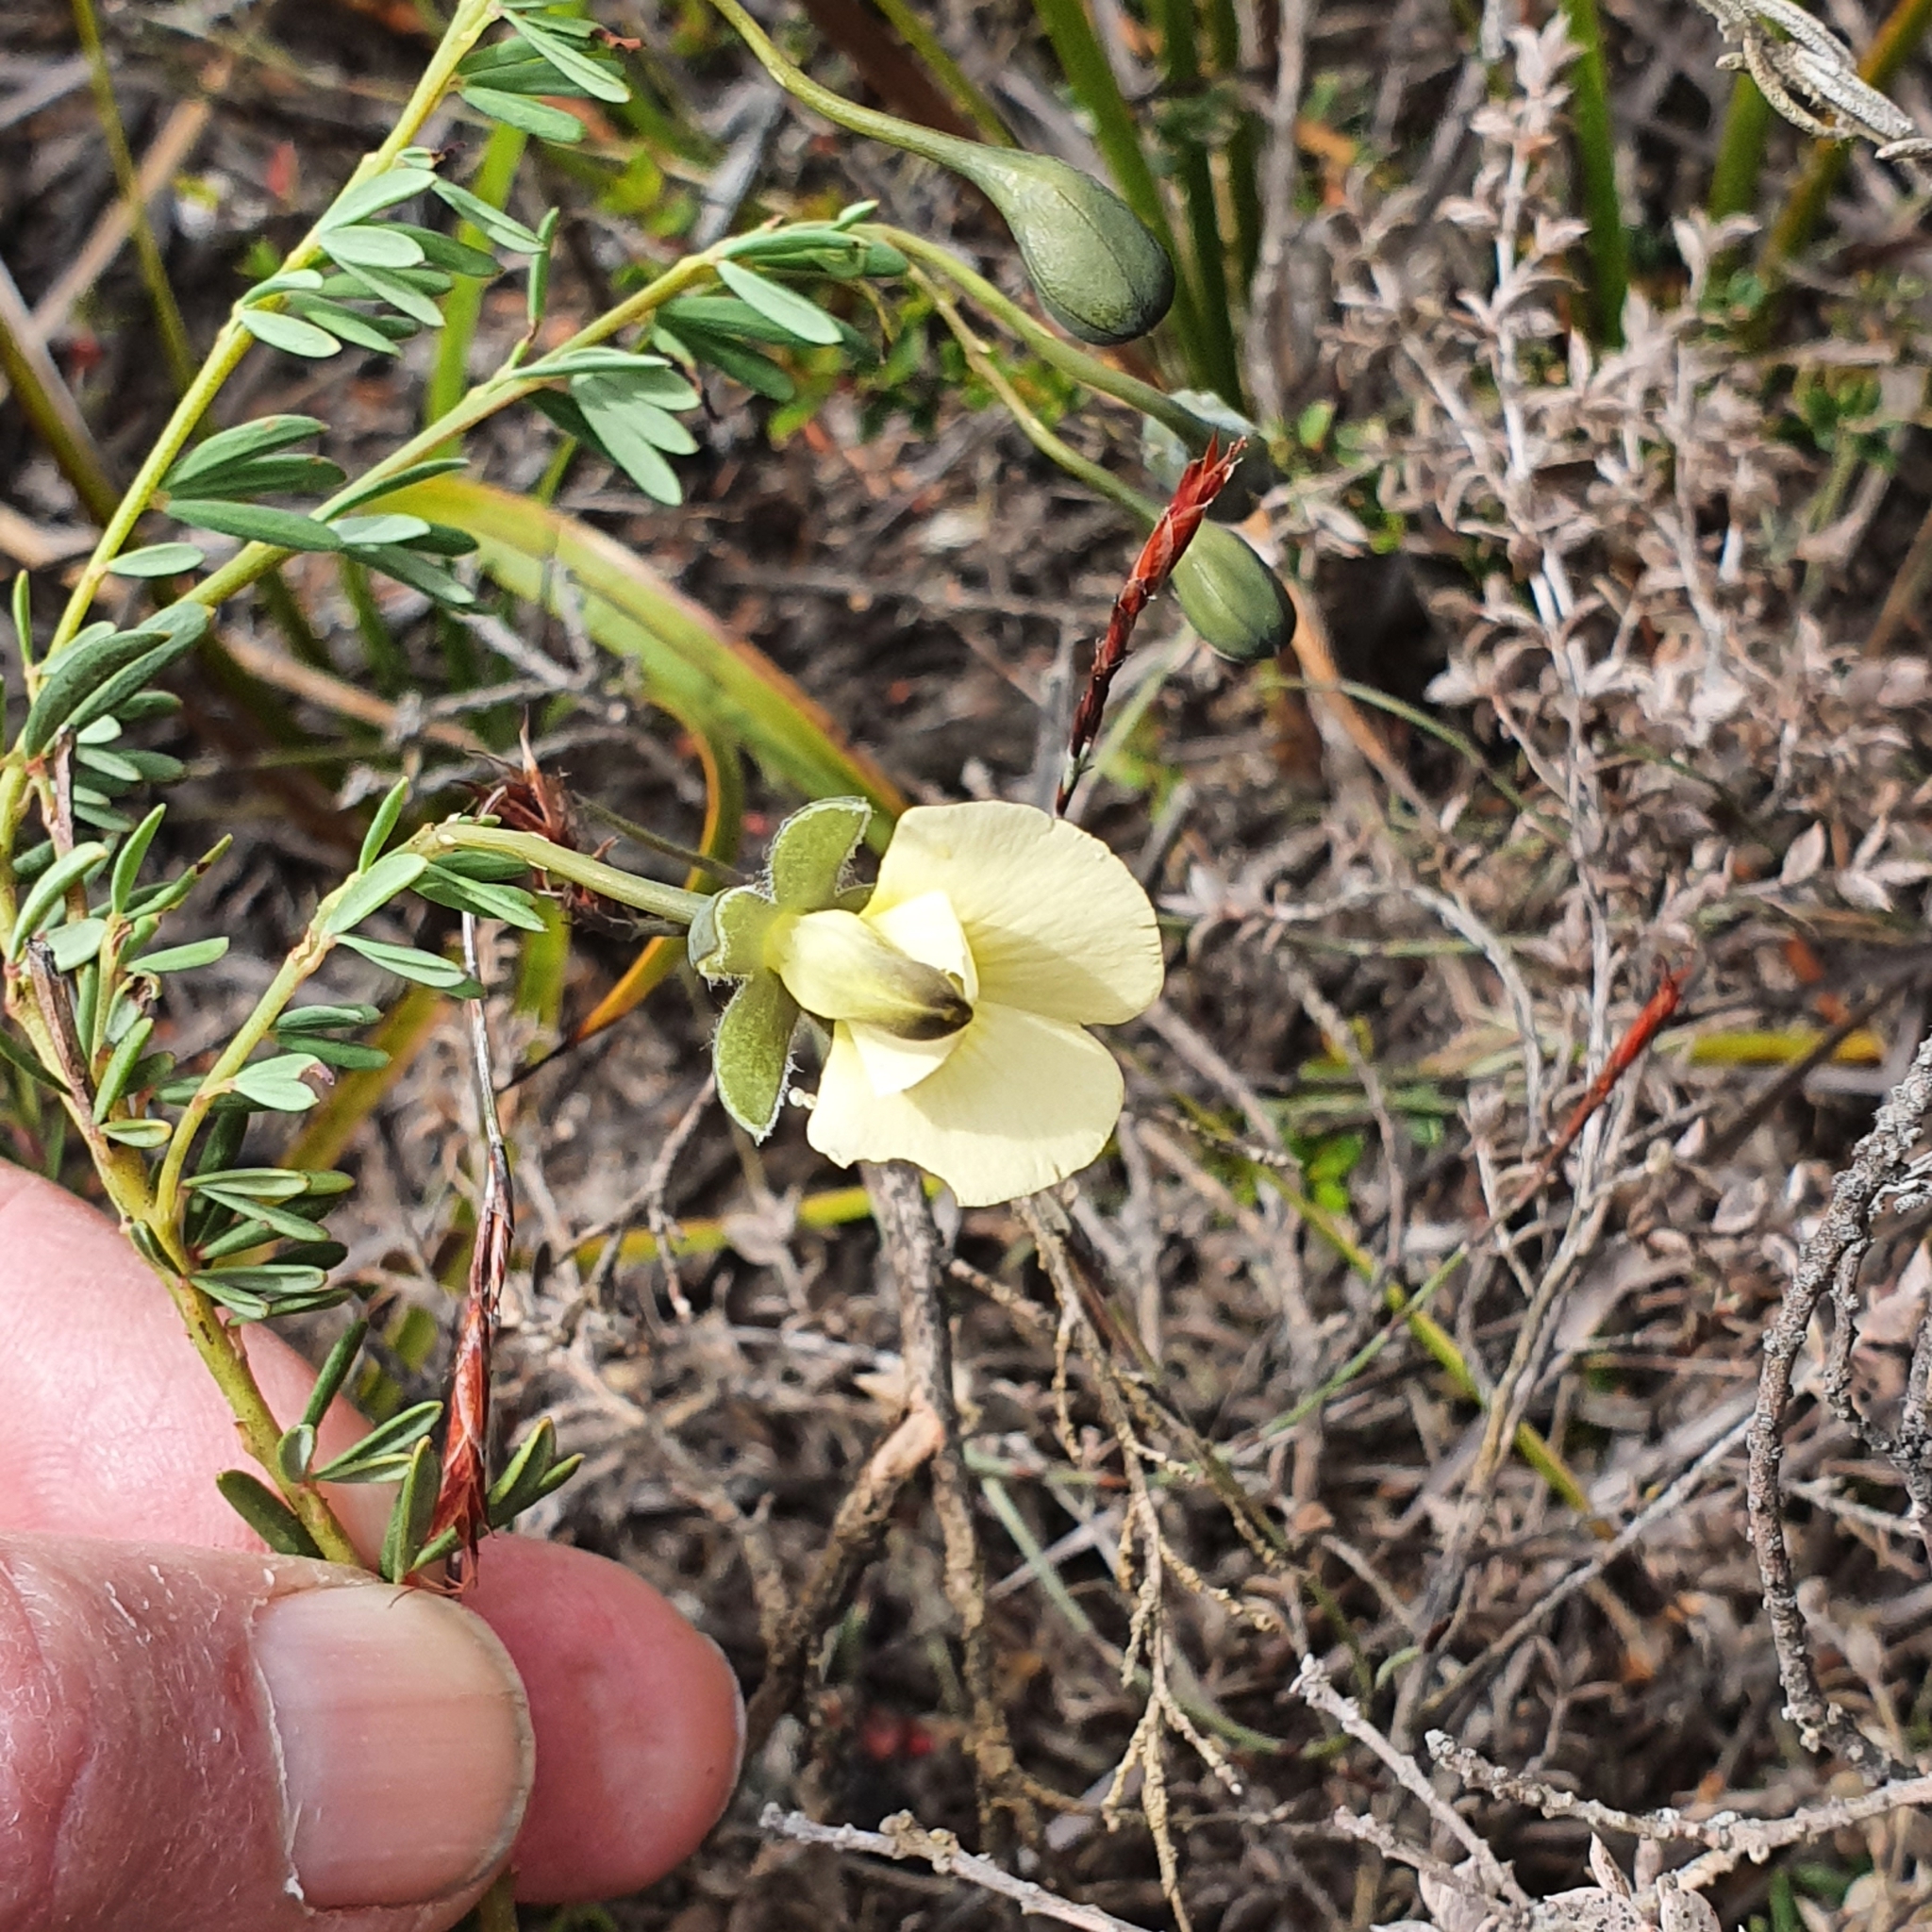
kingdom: Plantae
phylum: Tracheophyta
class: Magnoliopsida
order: Fabales
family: Fabaceae
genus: Gompholobium
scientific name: Gompholobium huegelii
